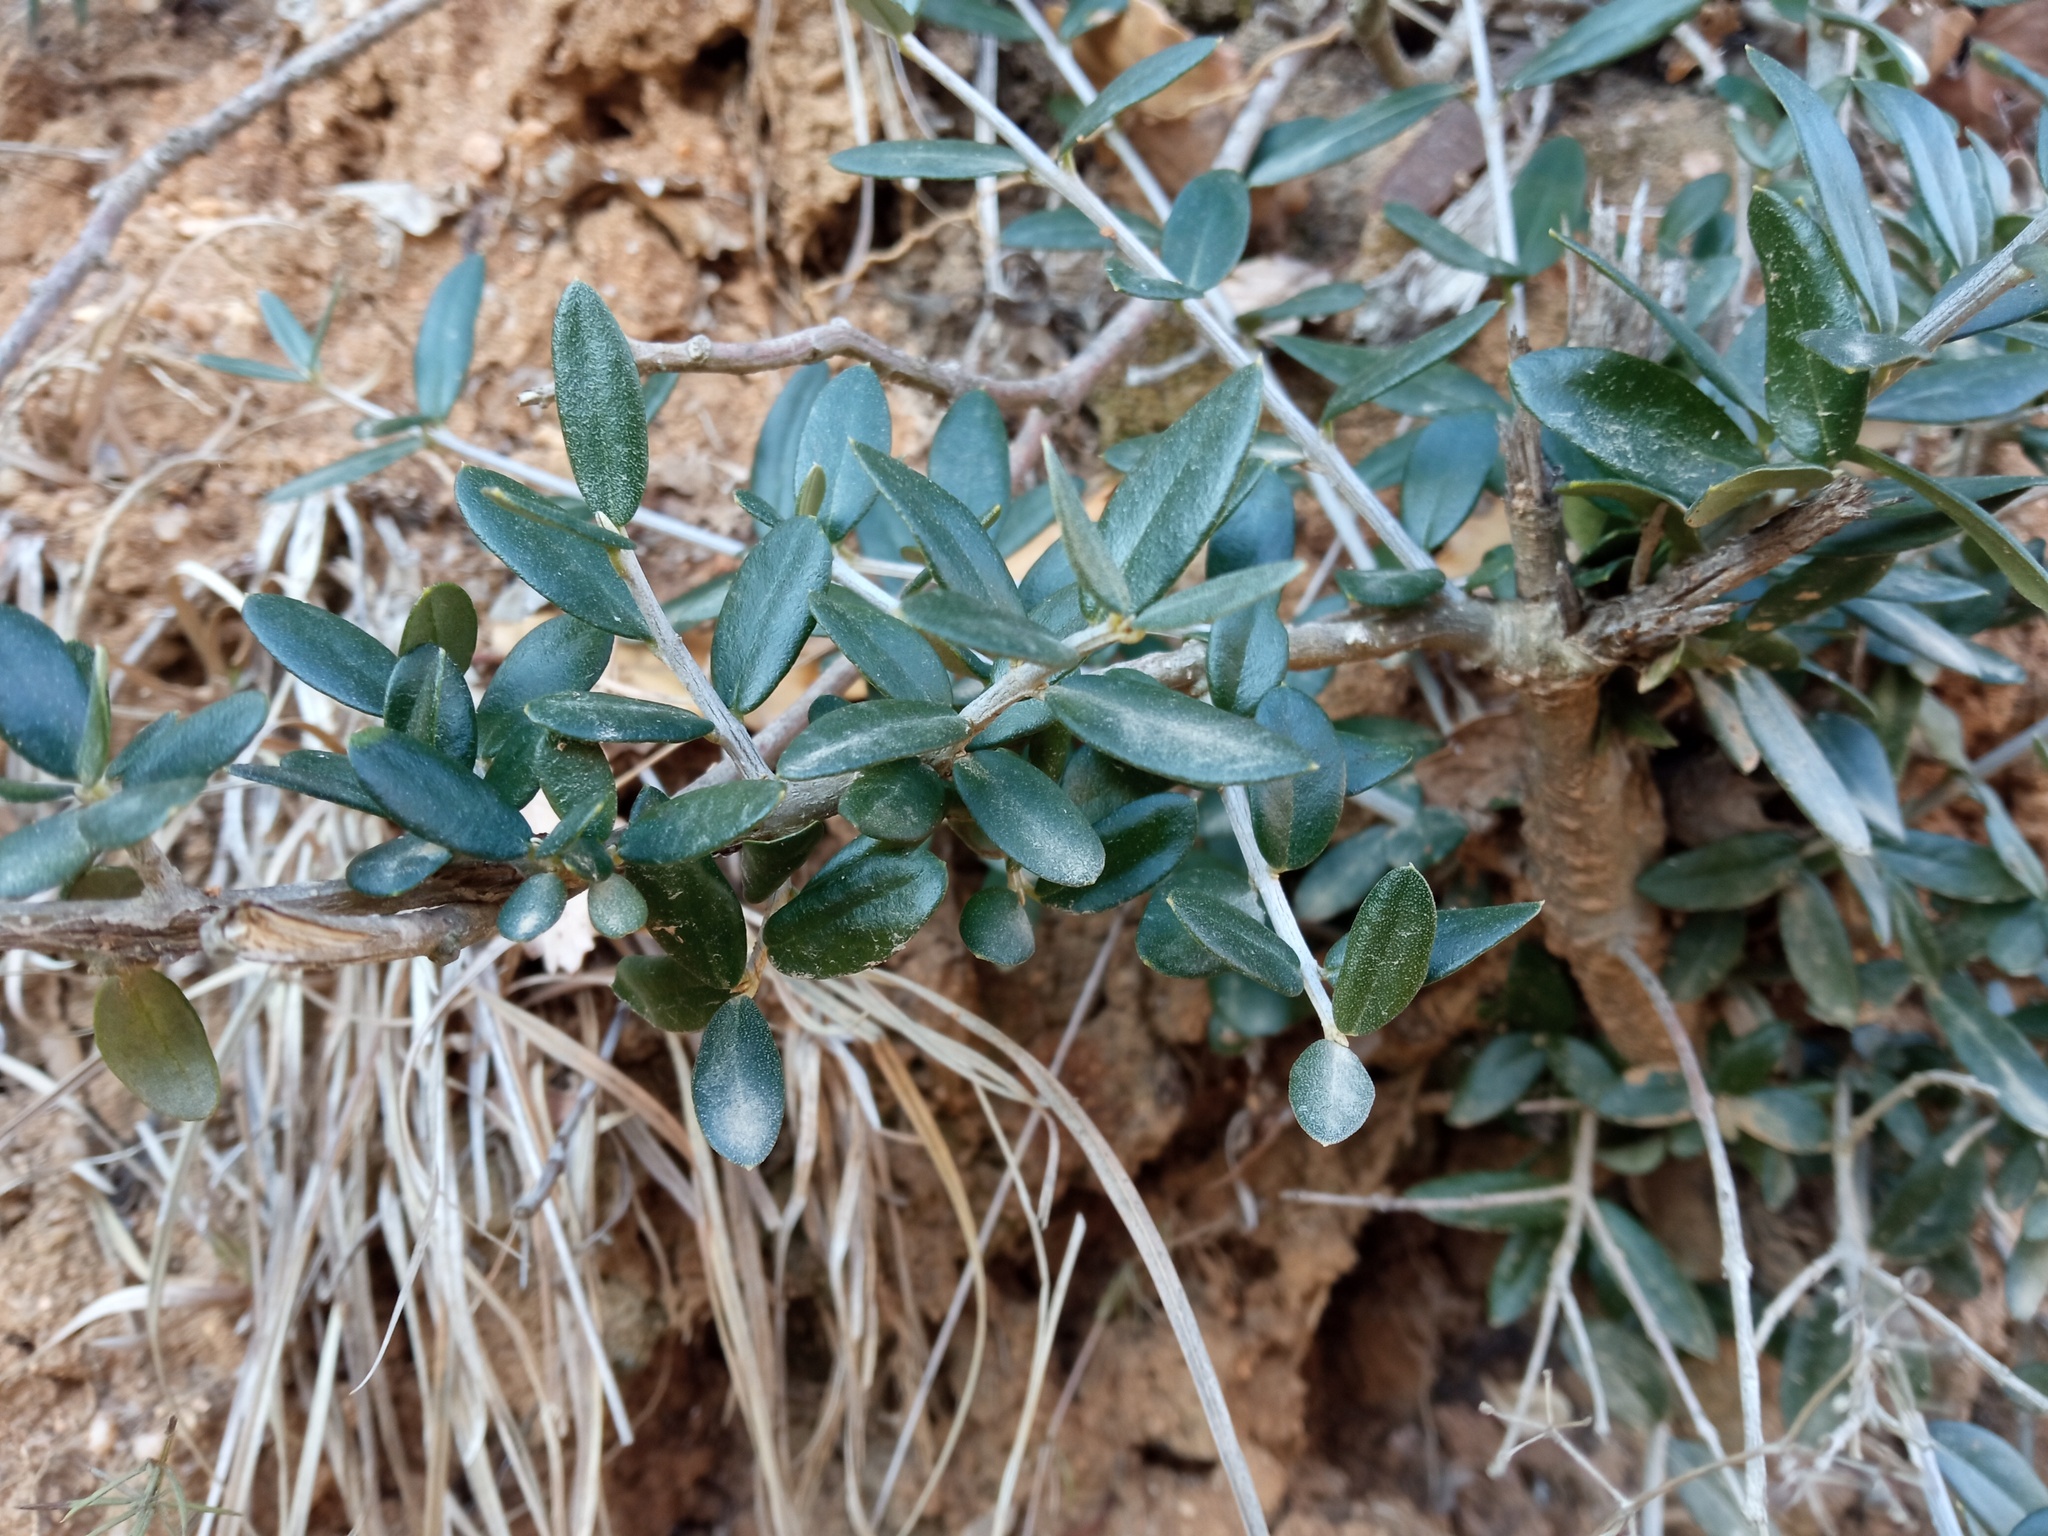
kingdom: Plantae
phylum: Tracheophyta
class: Magnoliopsida
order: Lamiales
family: Oleaceae
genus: Olea
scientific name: Olea europaea
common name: Olive
